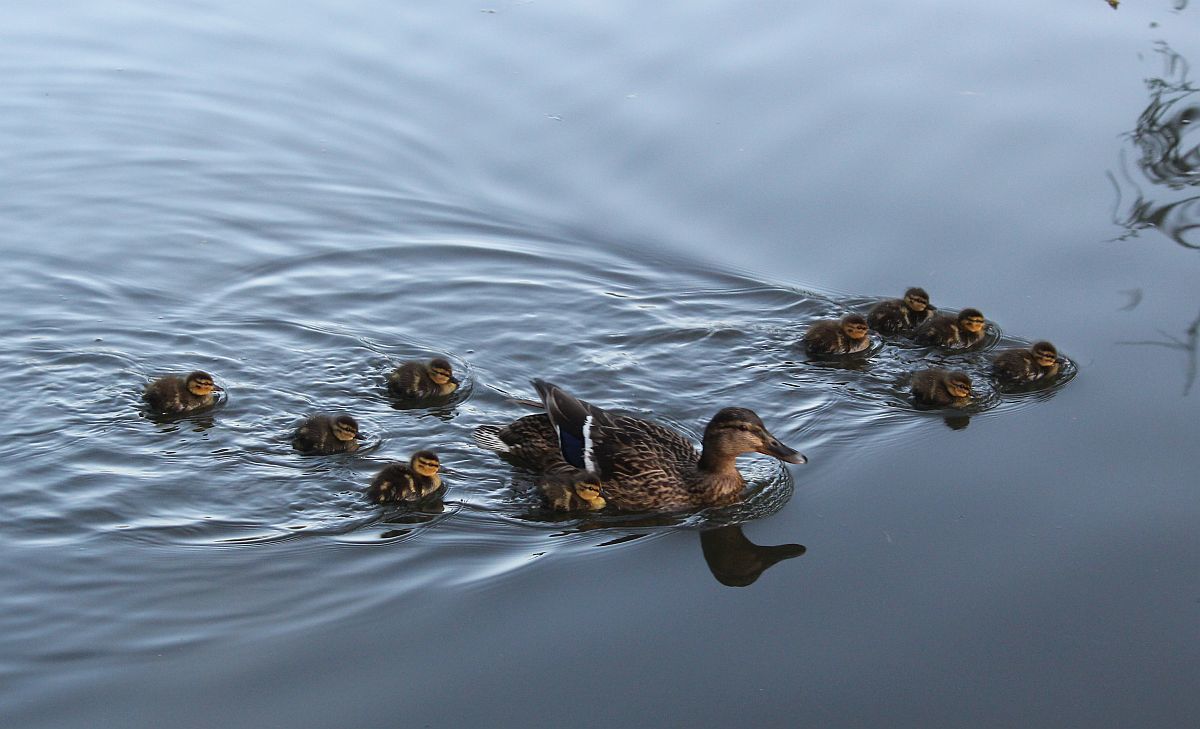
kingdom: Animalia
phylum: Chordata
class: Aves
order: Anseriformes
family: Anatidae
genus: Anas
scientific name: Anas platyrhynchos
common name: Mallard
